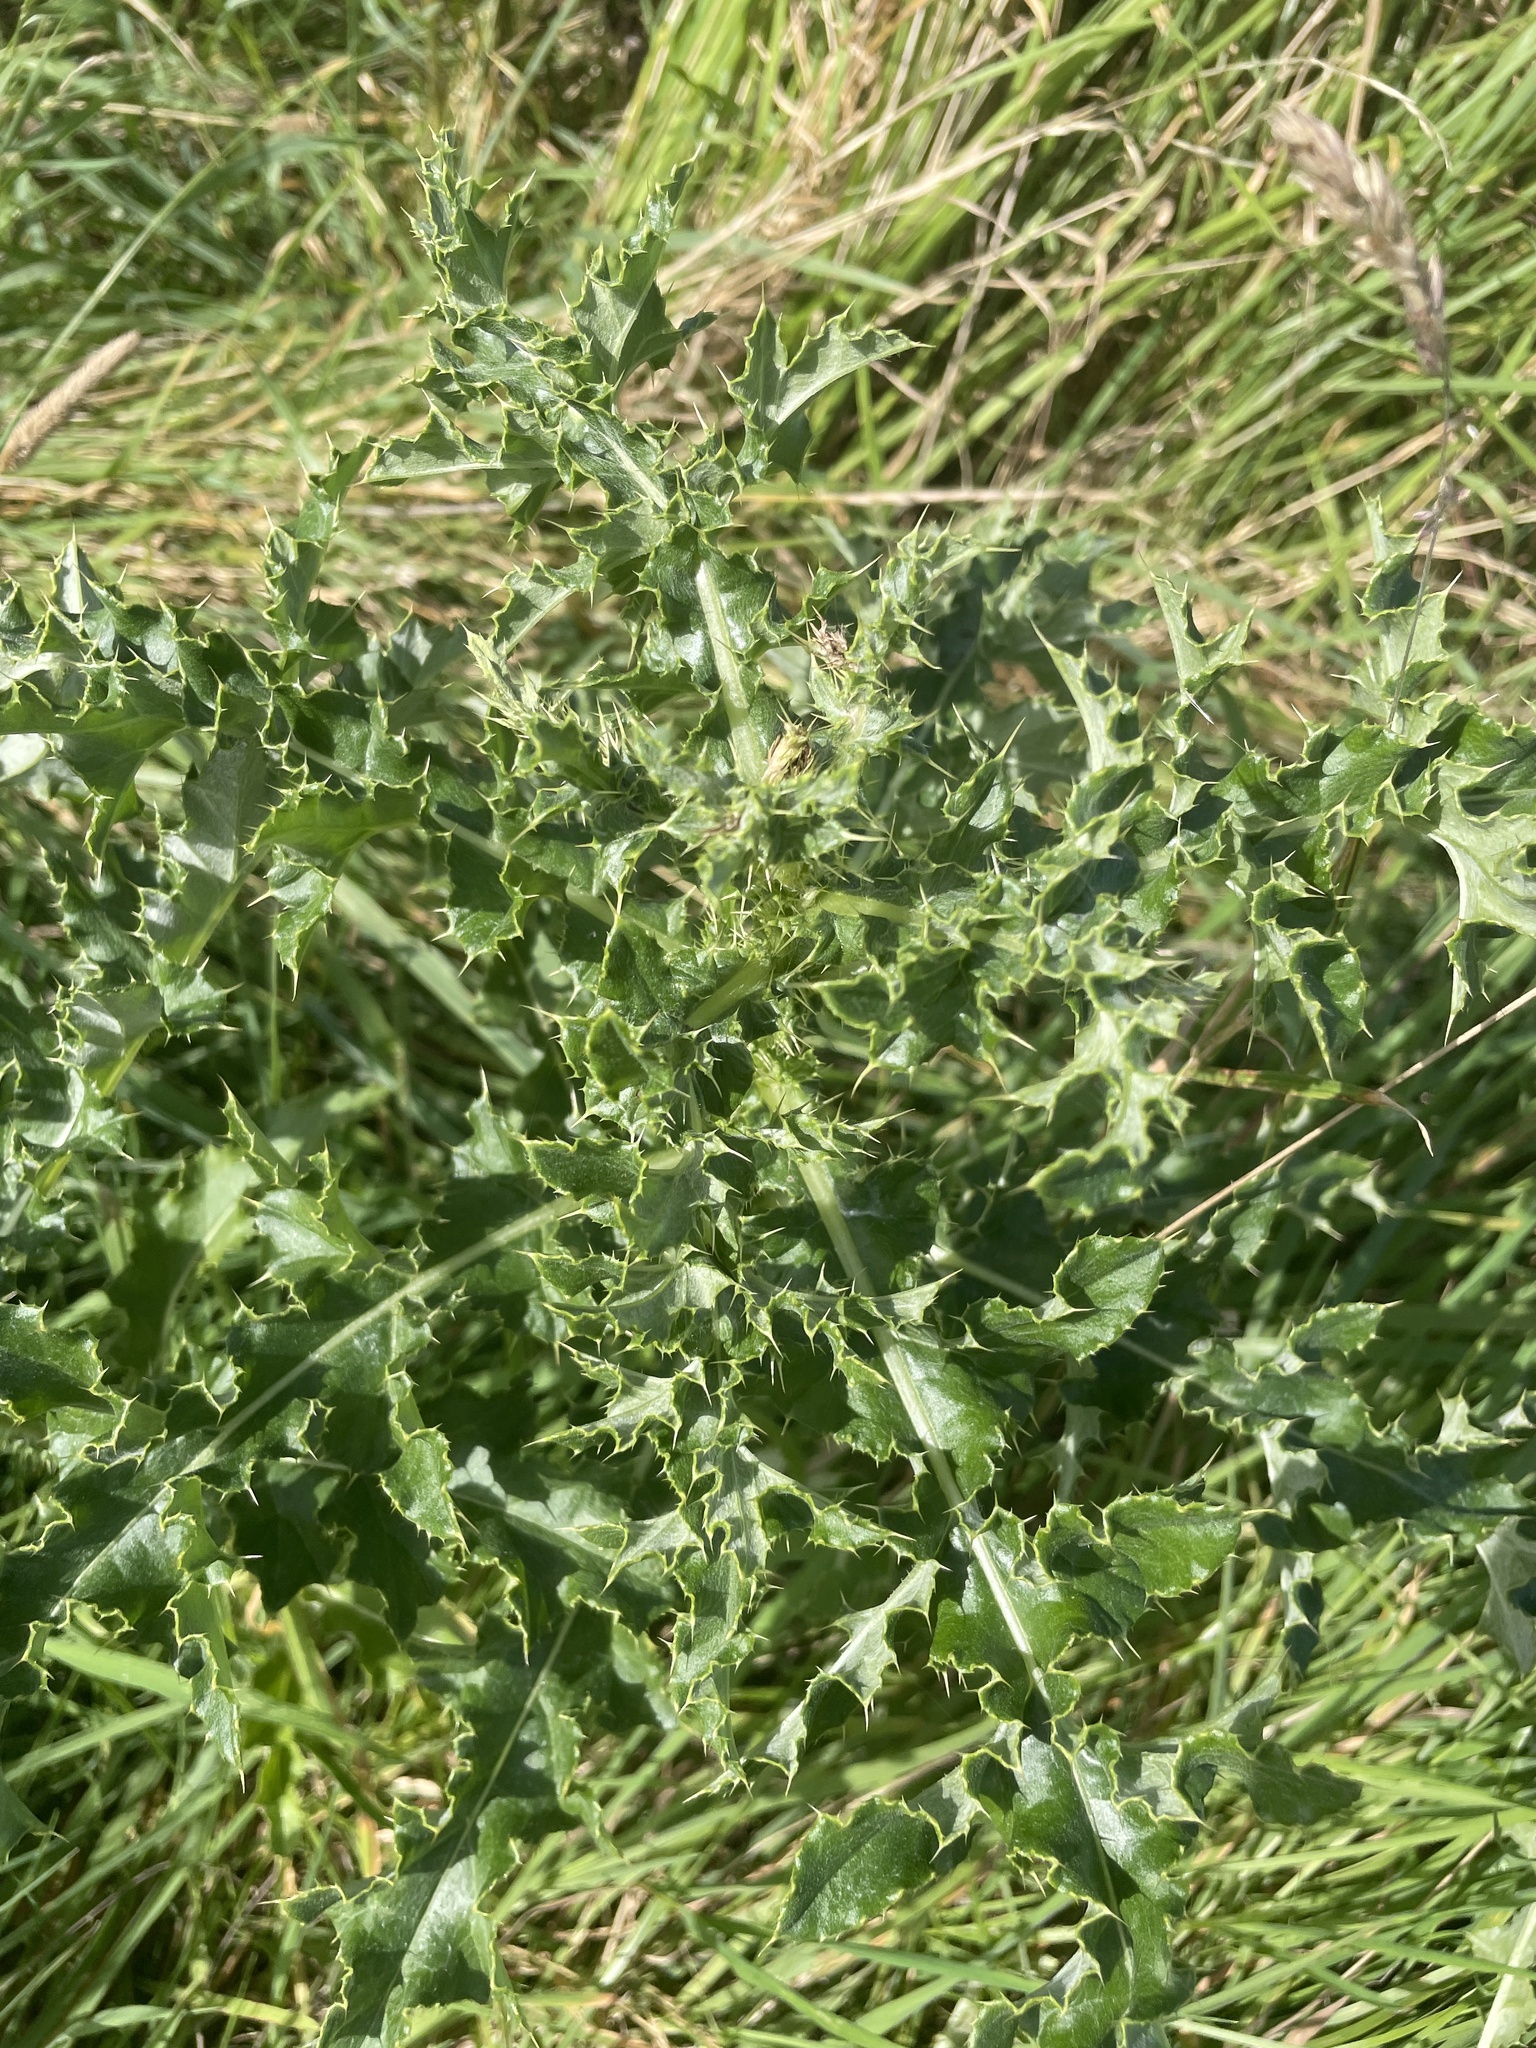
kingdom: Plantae
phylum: Tracheophyta
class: Magnoliopsida
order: Asterales
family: Asteraceae
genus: Cirsium
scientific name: Cirsium arvense
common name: Creeping thistle
